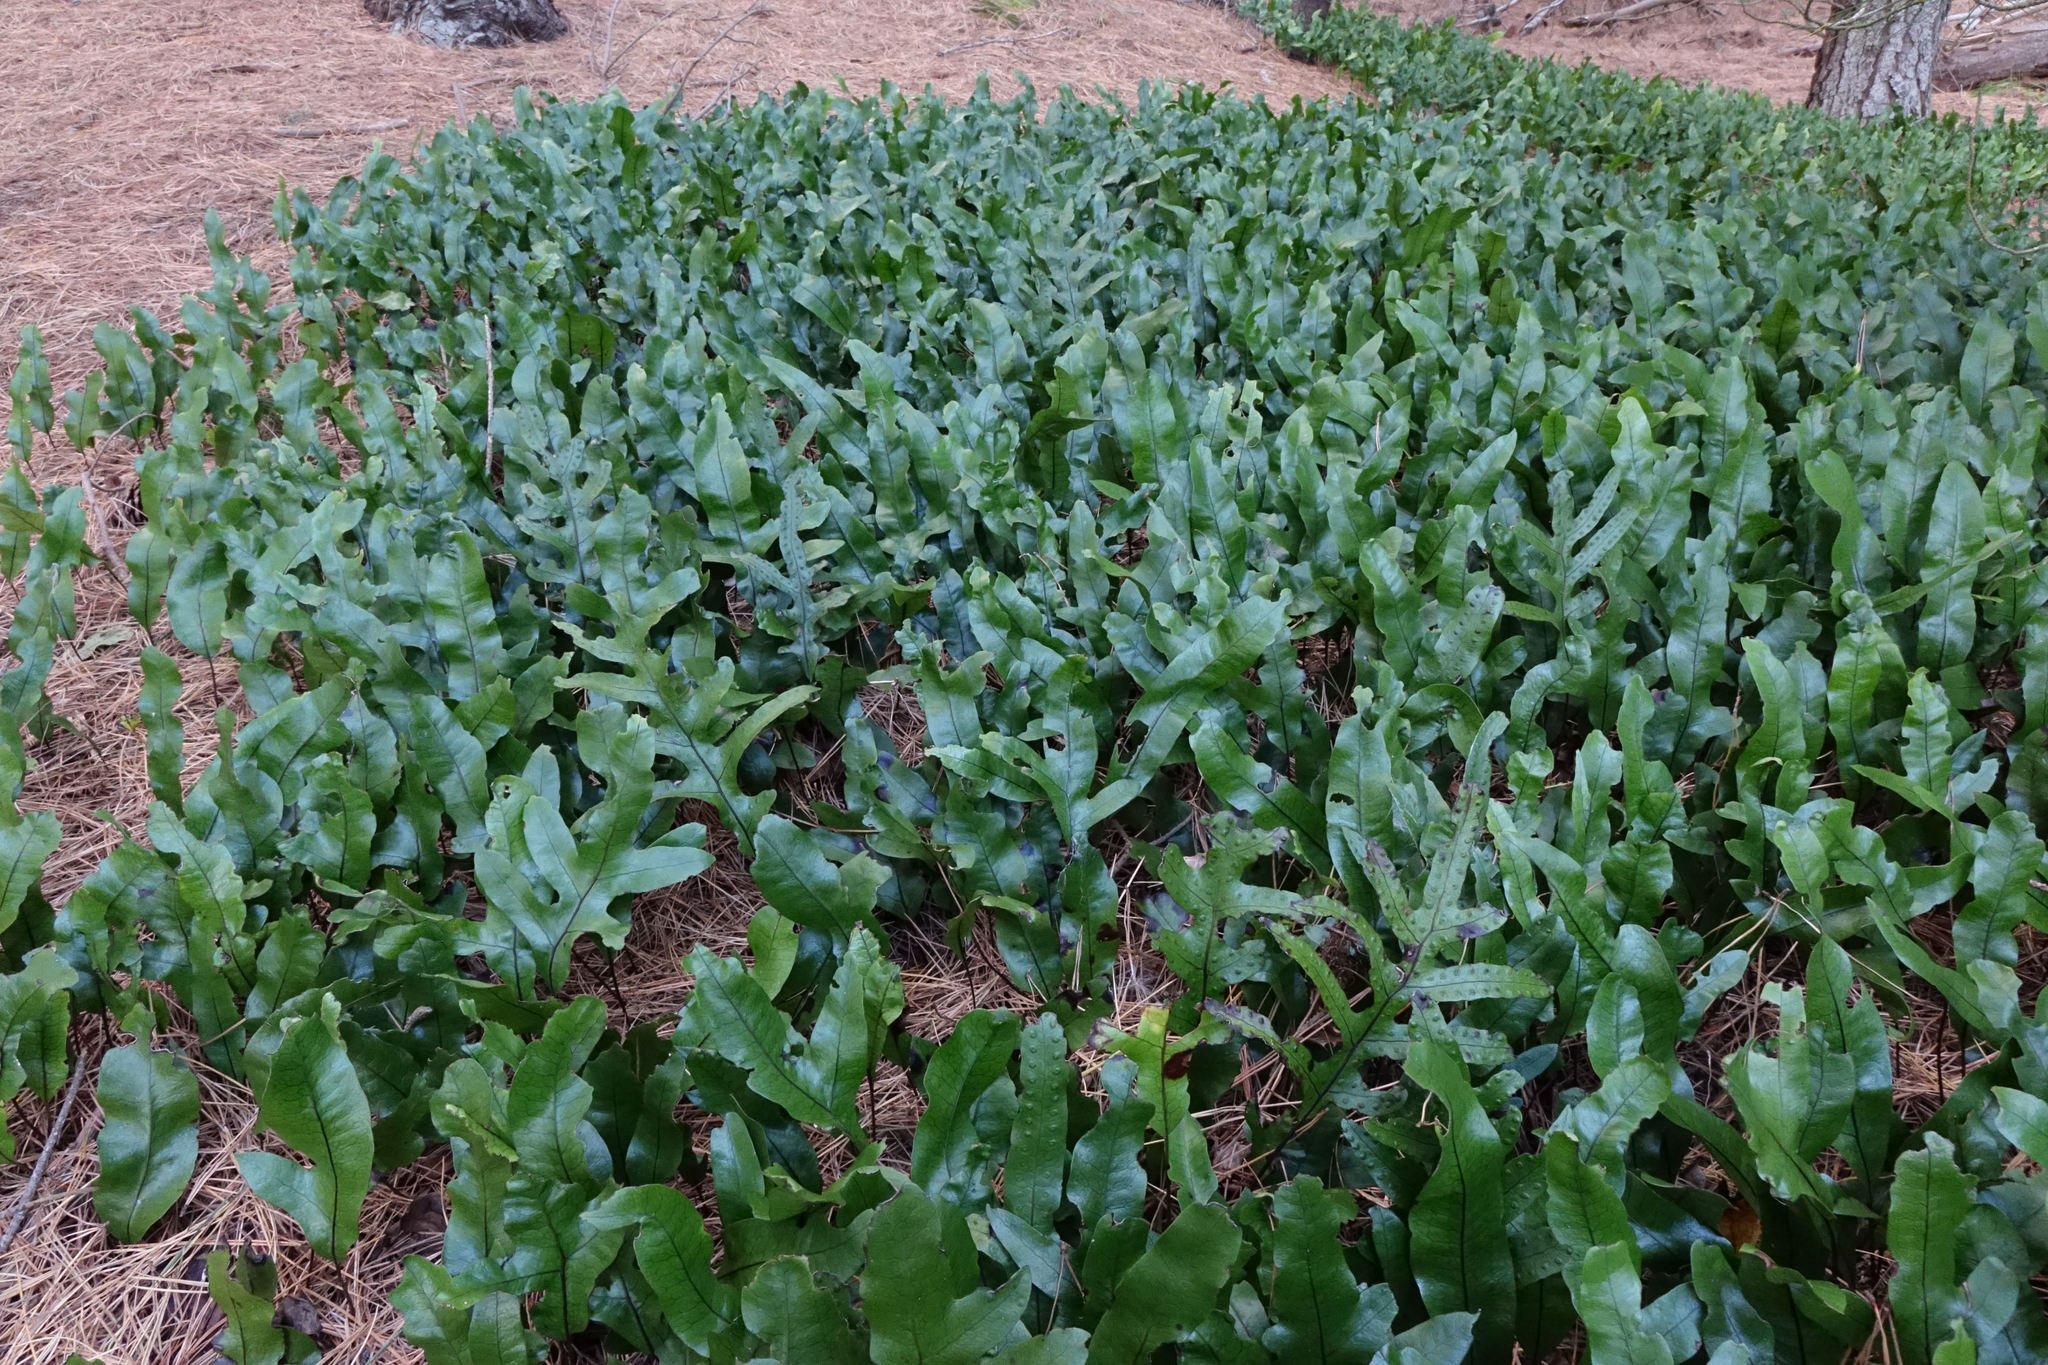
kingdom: Plantae
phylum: Tracheophyta
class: Polypodiopsida
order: Polypodiales
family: Polypodiaceae
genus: Lecanopteris
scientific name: Lecanopteris pustulata
